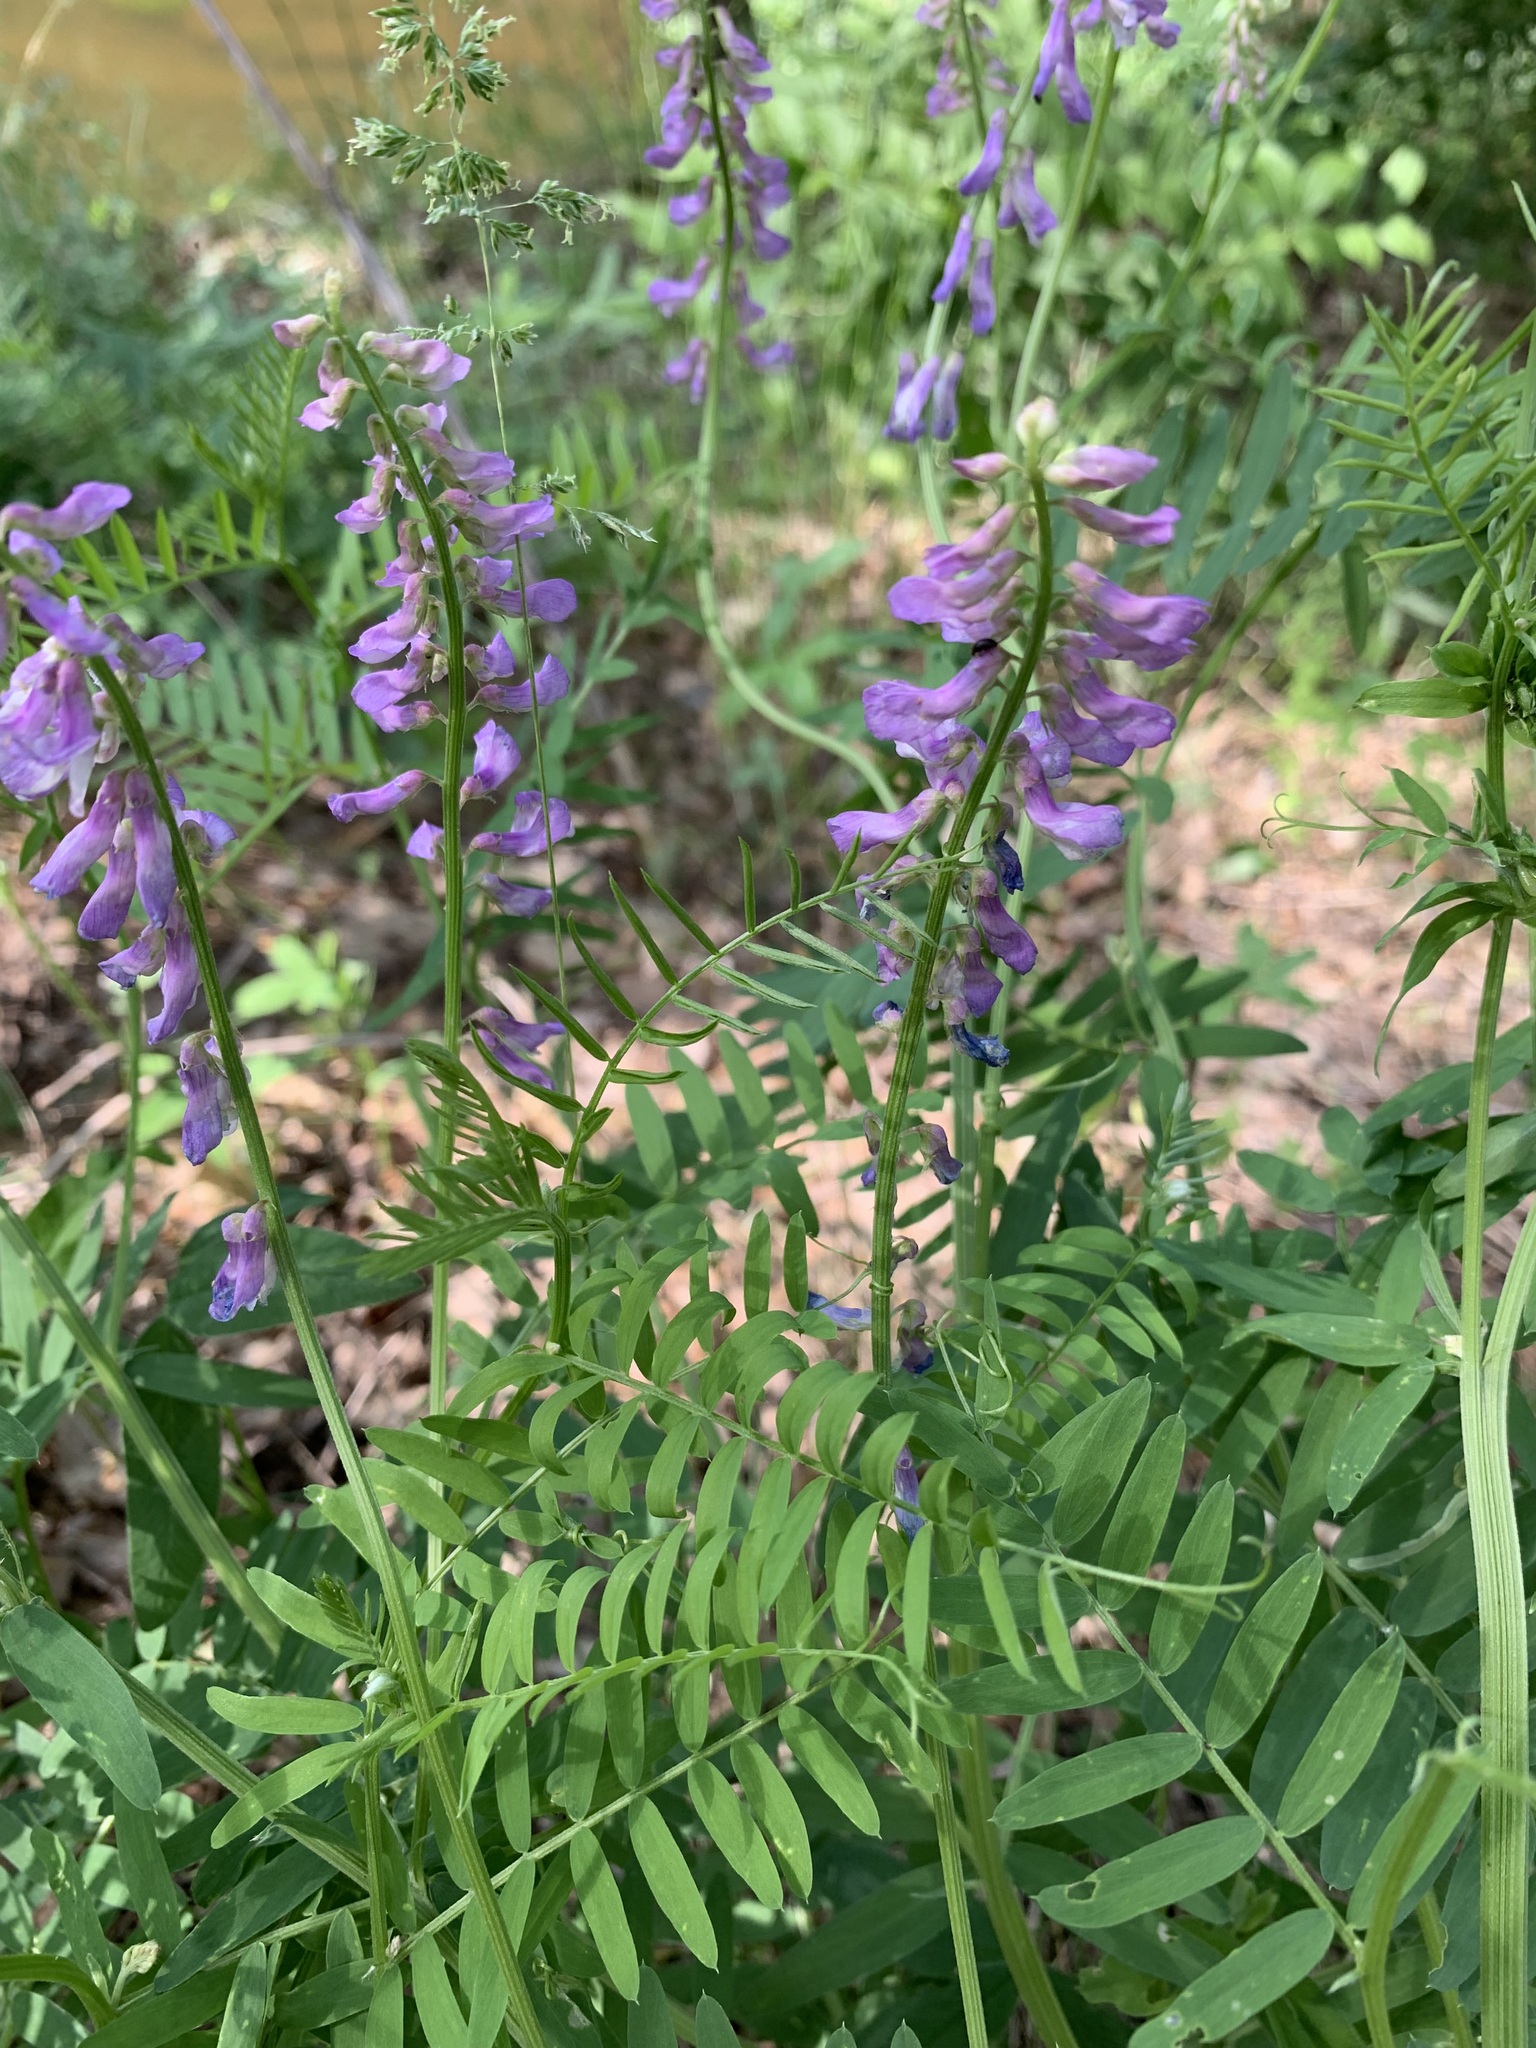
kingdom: Plantae
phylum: Tracheophyta
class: Magnoliopsida
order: Fabales
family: Fabaceae
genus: Vicia
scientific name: Vicia tenuifolia
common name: Fine-leaved vetch
